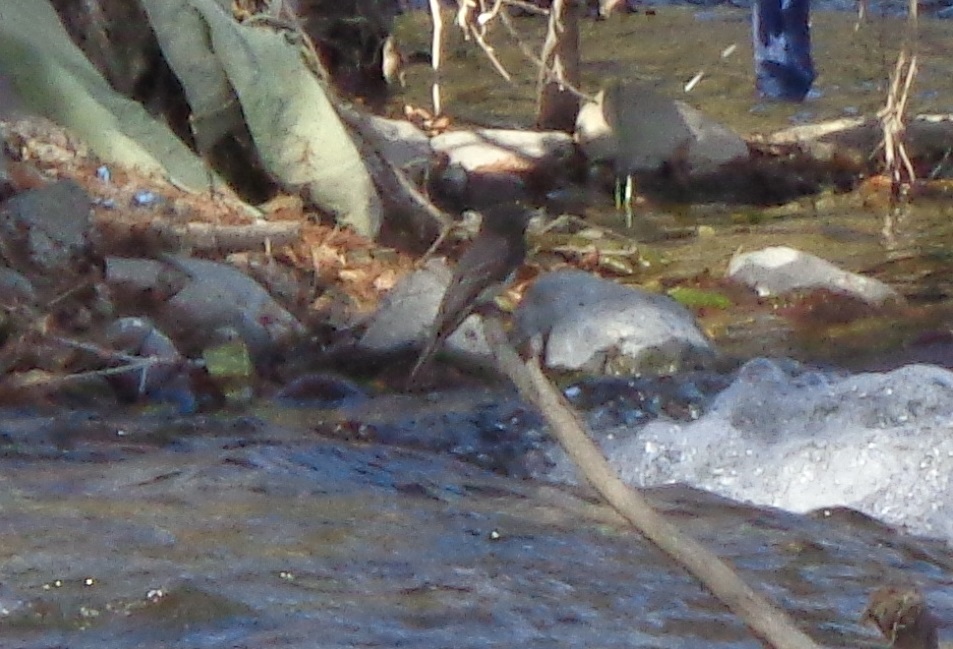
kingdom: Animalia
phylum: Chordata
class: Aves
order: Passeriformes
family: Tyrannidae
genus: Sayornis
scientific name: Sayornis nigricans
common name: Black phoebe
